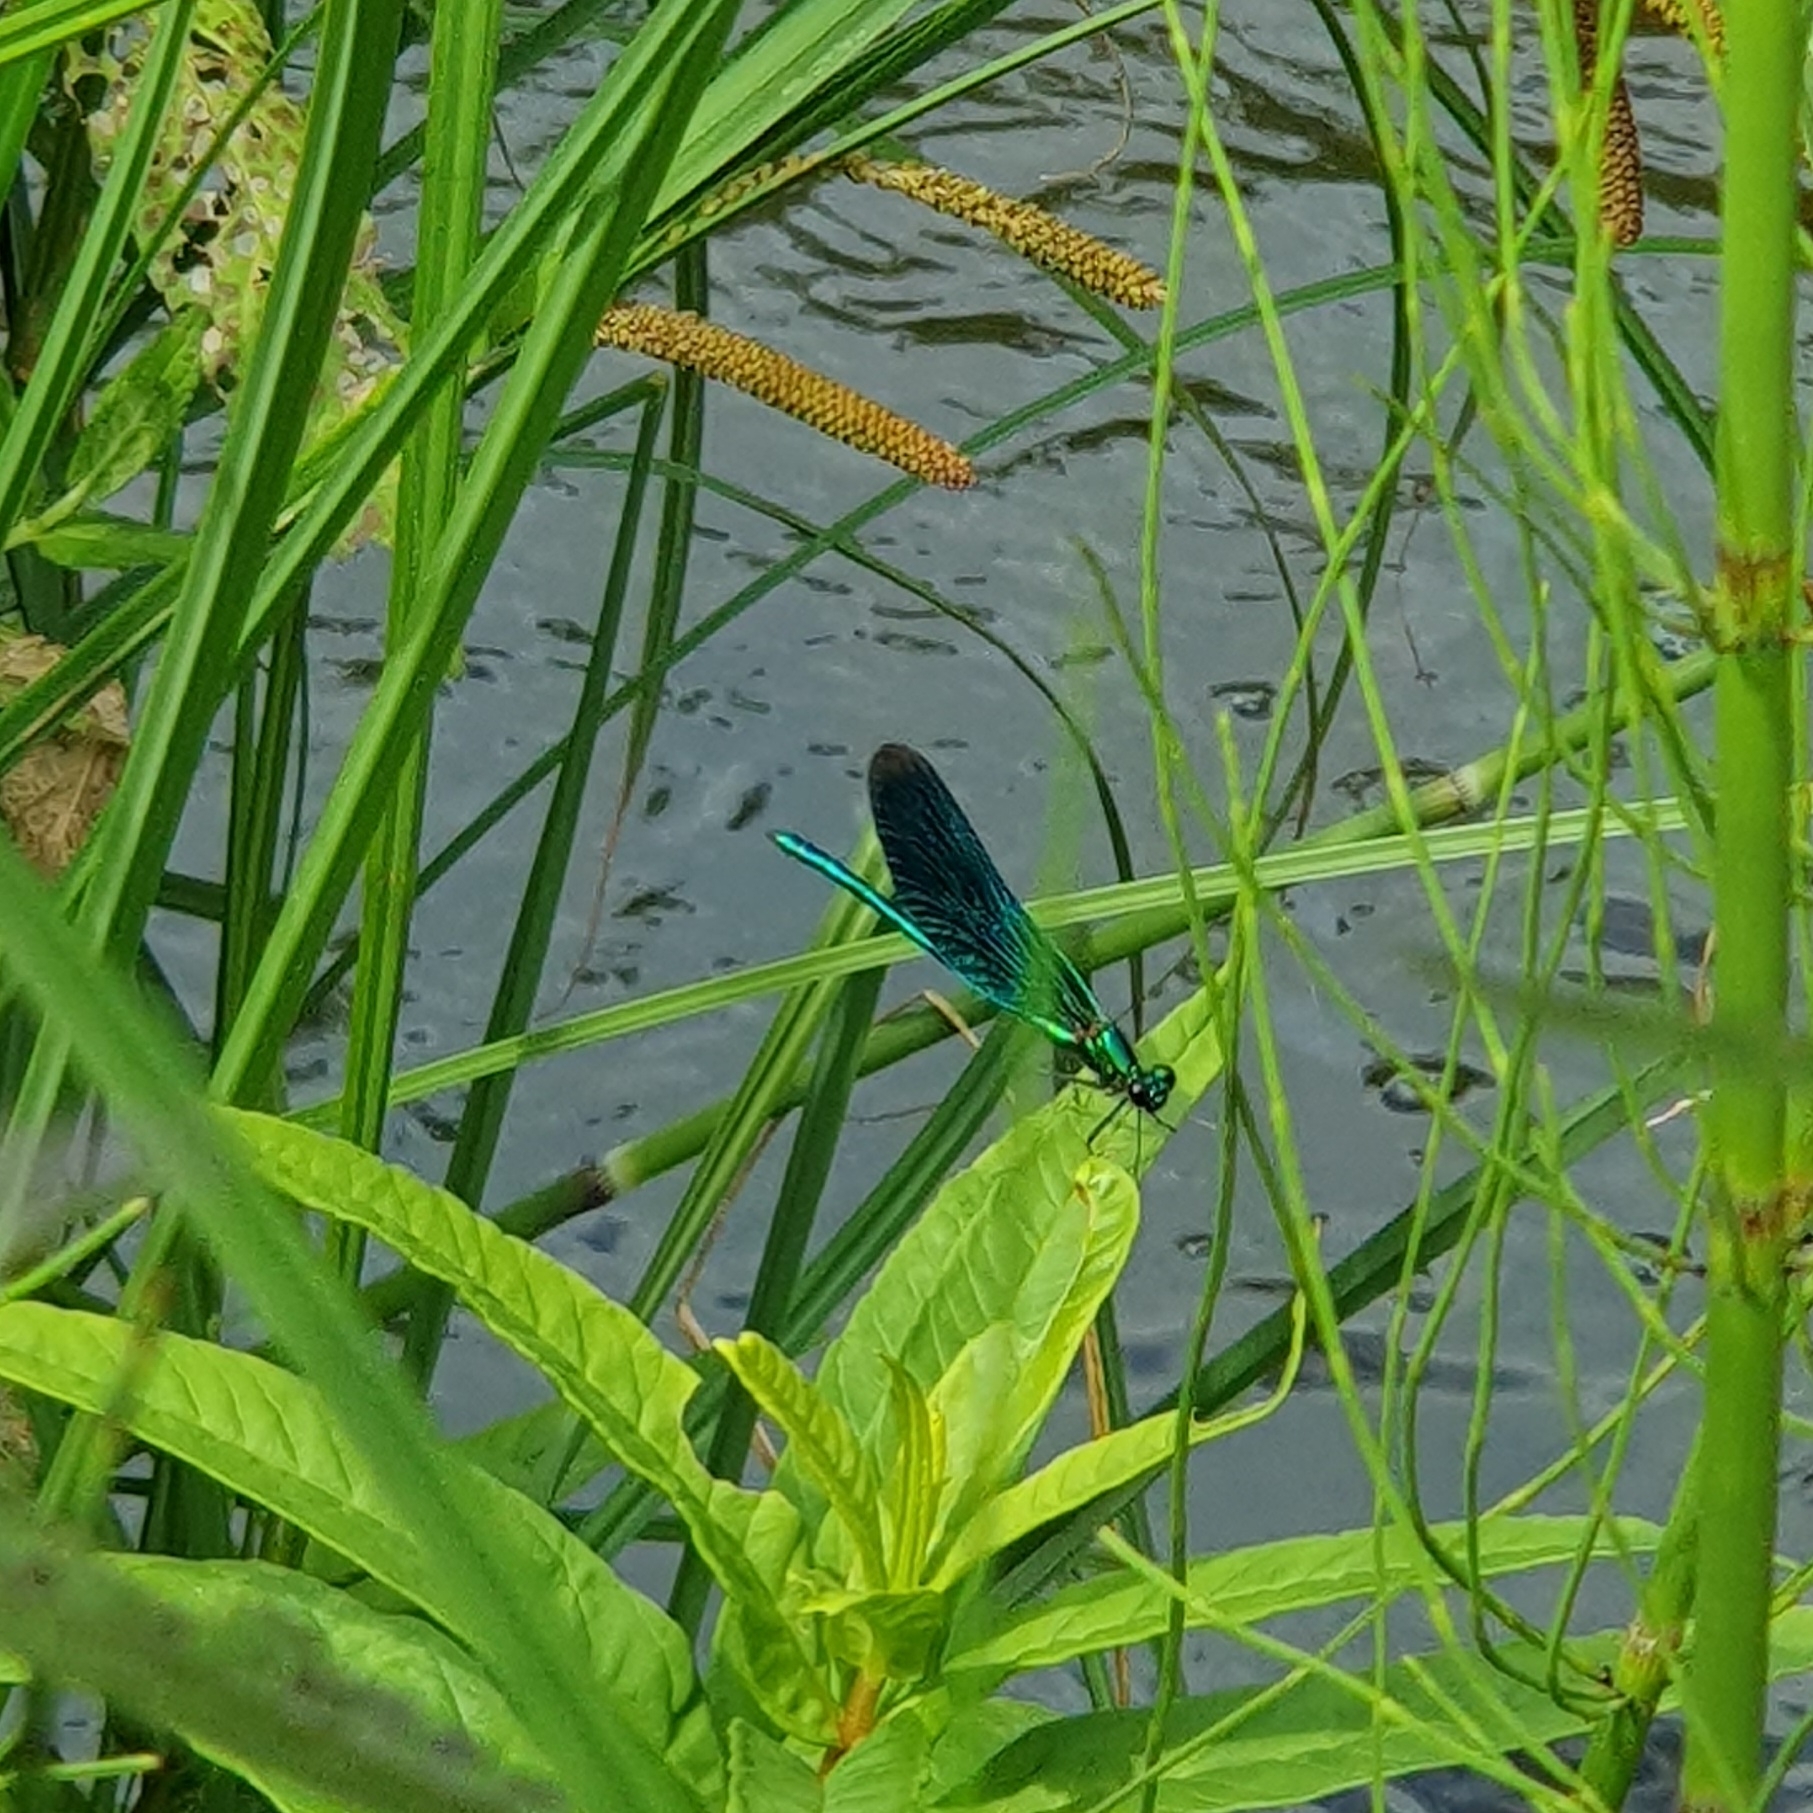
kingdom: Animalia
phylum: Arthropoda
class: Insecta
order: Odonata
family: Calopterygidae
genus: Calopteryx
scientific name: Calopteryx virgo
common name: Beautiful demoiselle
